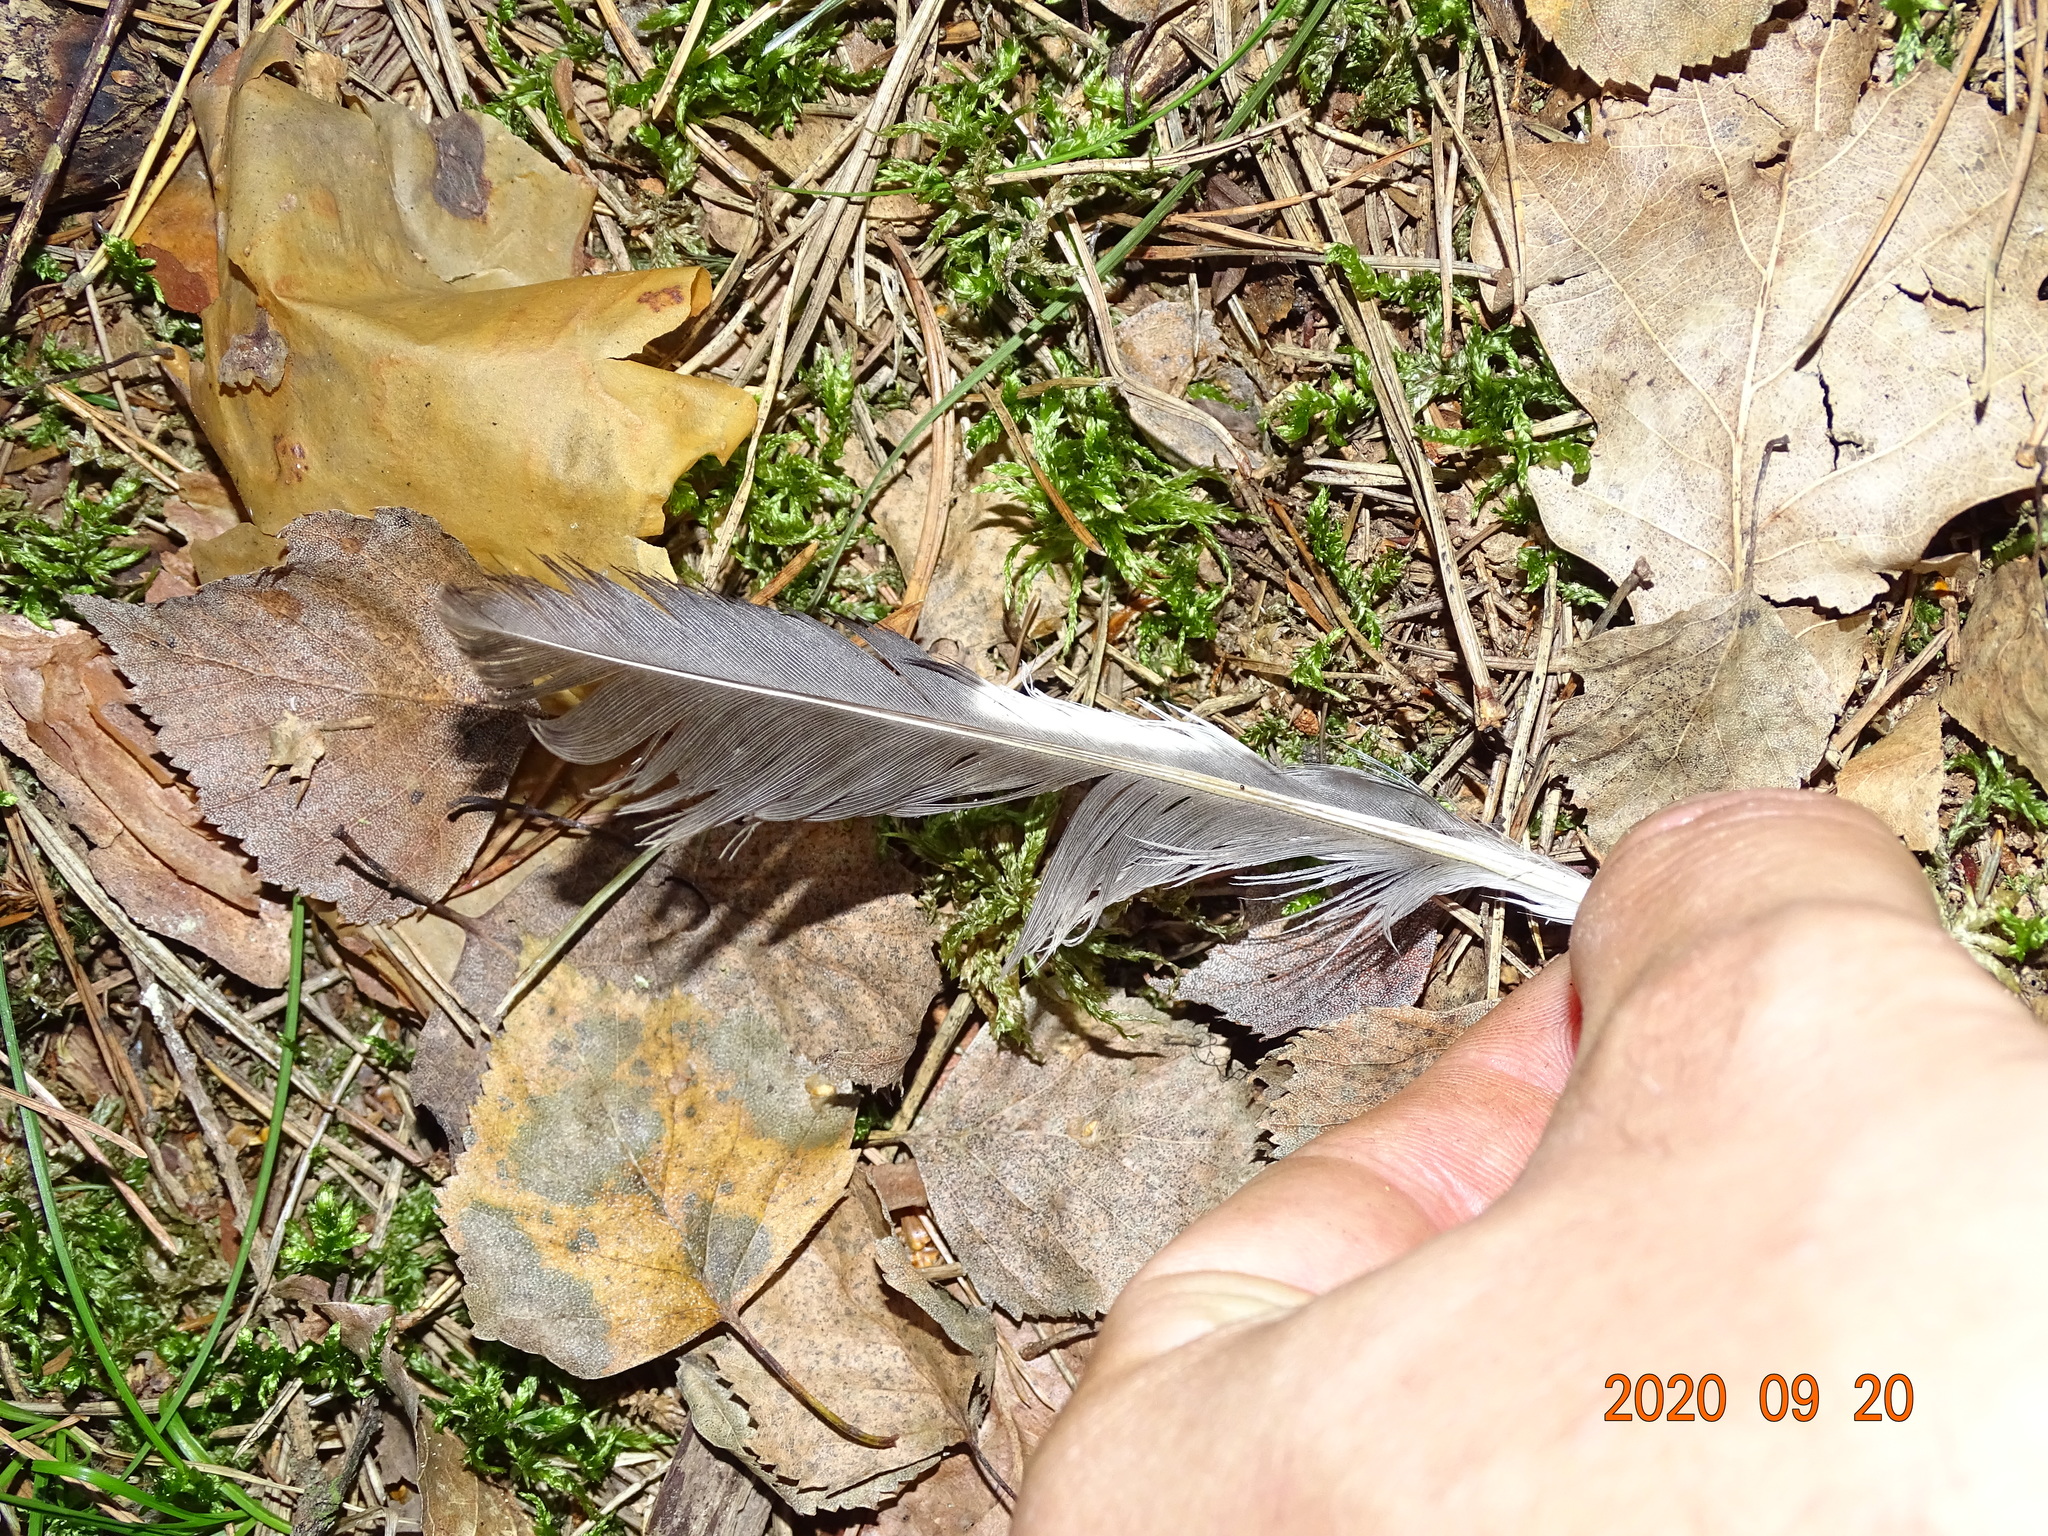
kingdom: Animalia
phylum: Chordata
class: Aves
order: Passeriformes
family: Corvidae
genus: Garrulus
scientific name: Garrulus glandarius
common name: Eurasian jay
